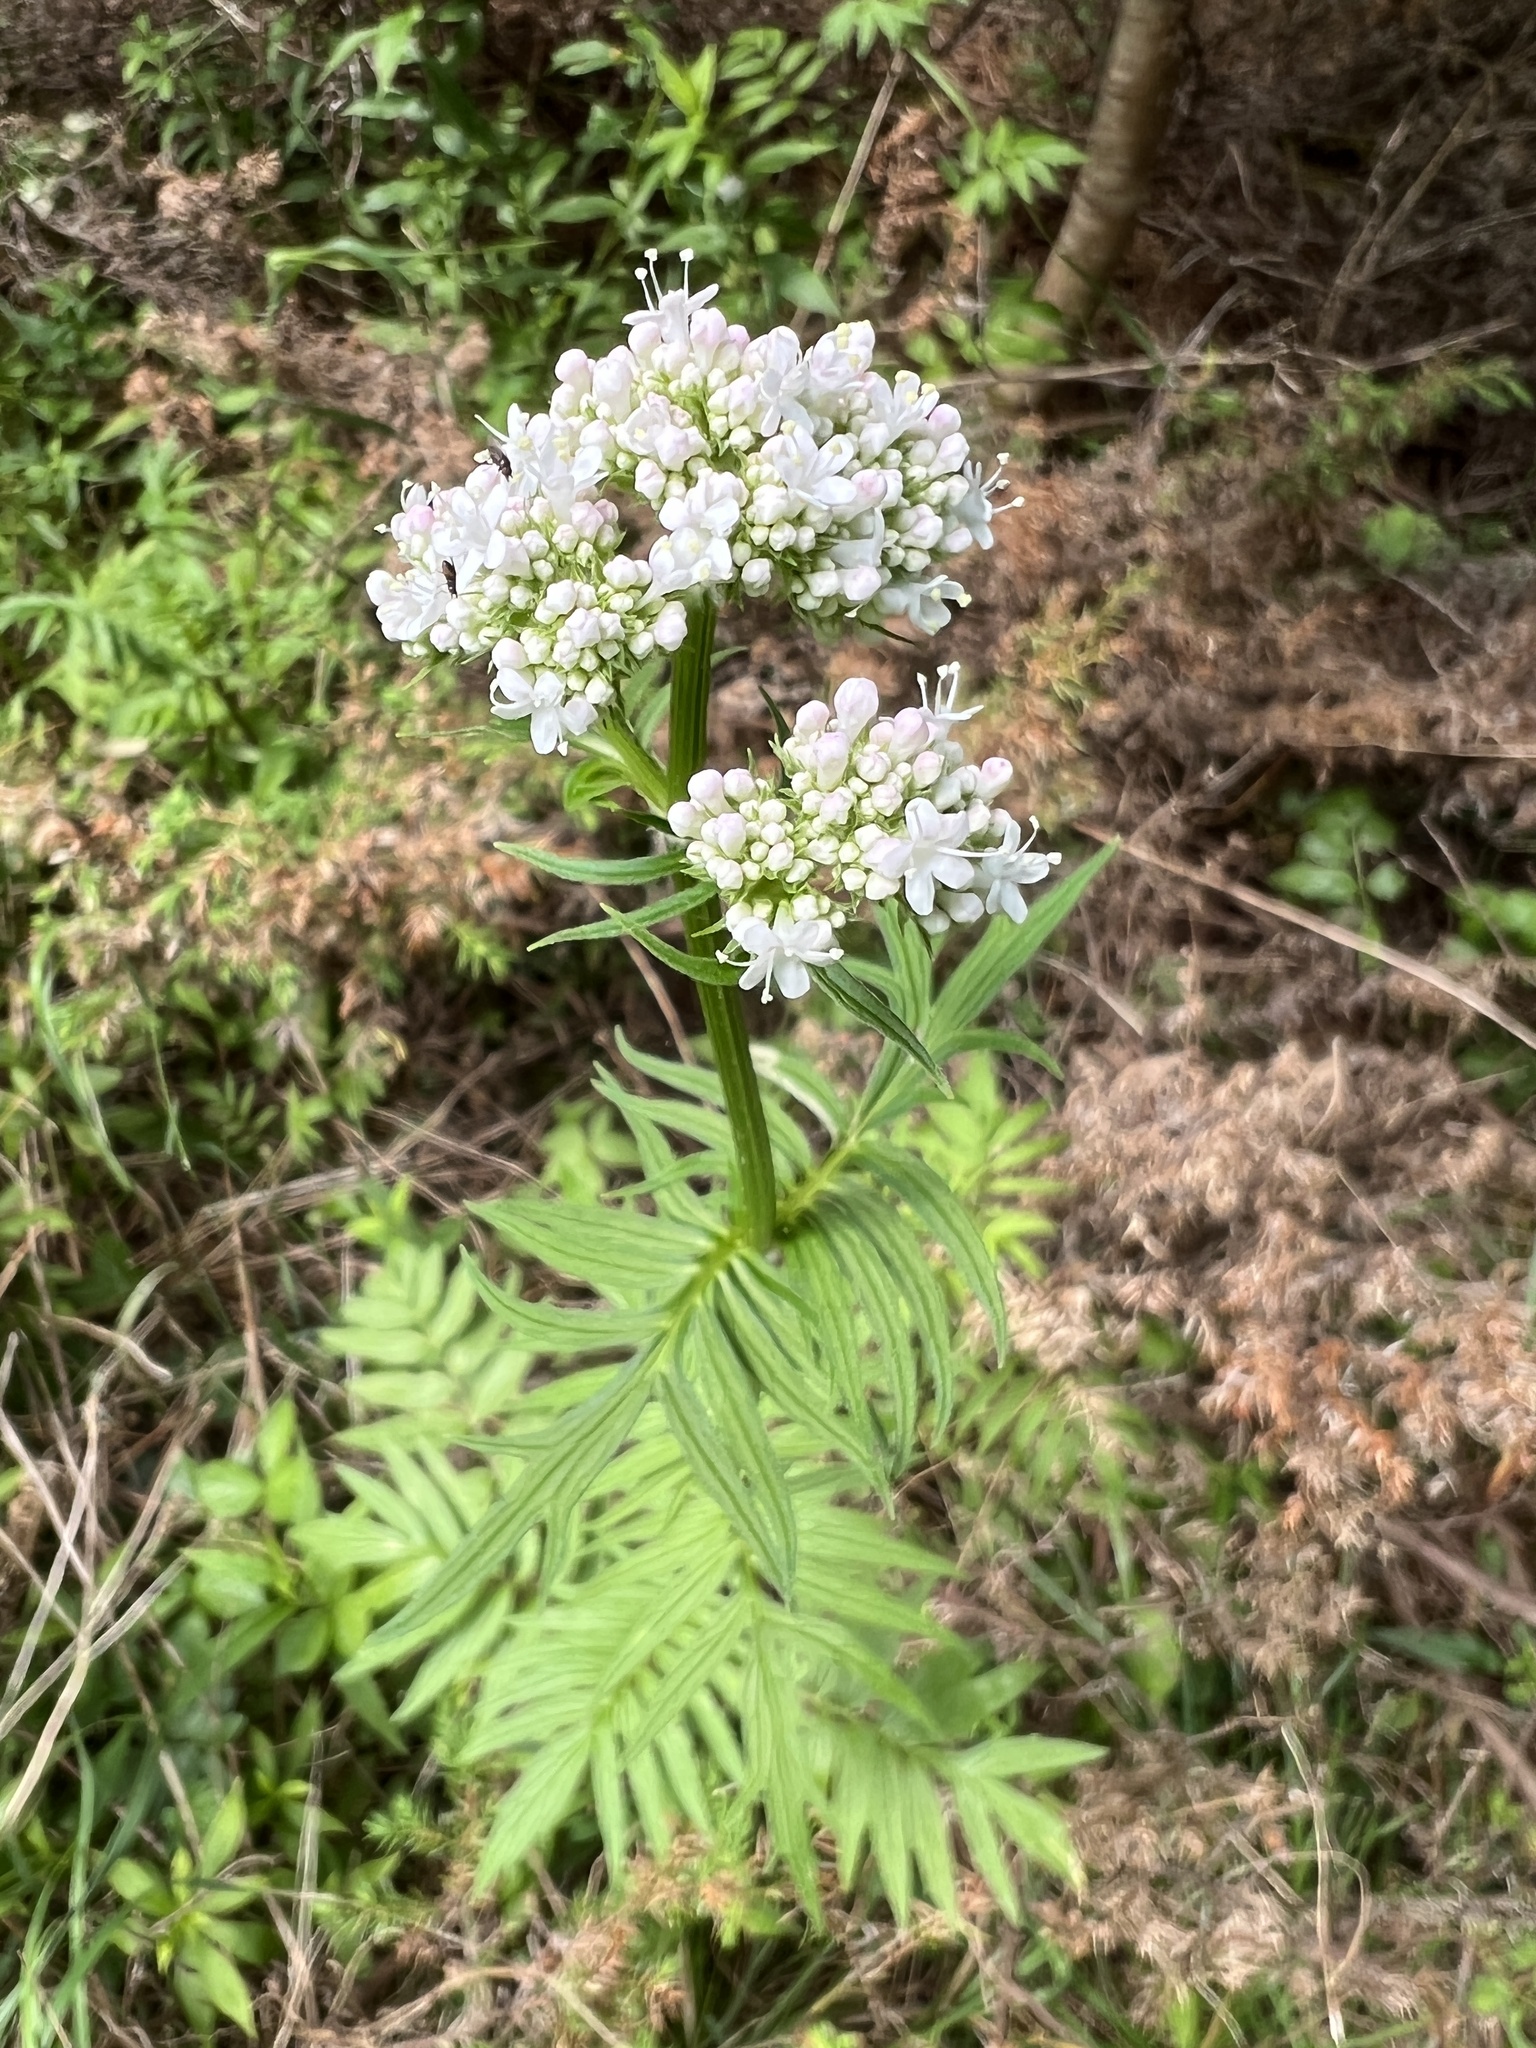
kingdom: Plantae
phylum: Tracheophyta
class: Magnoliopsida
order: Dipsacales
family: Caprifoliaceae
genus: Valeriana
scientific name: Valeriana officinalis
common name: Common valerian
